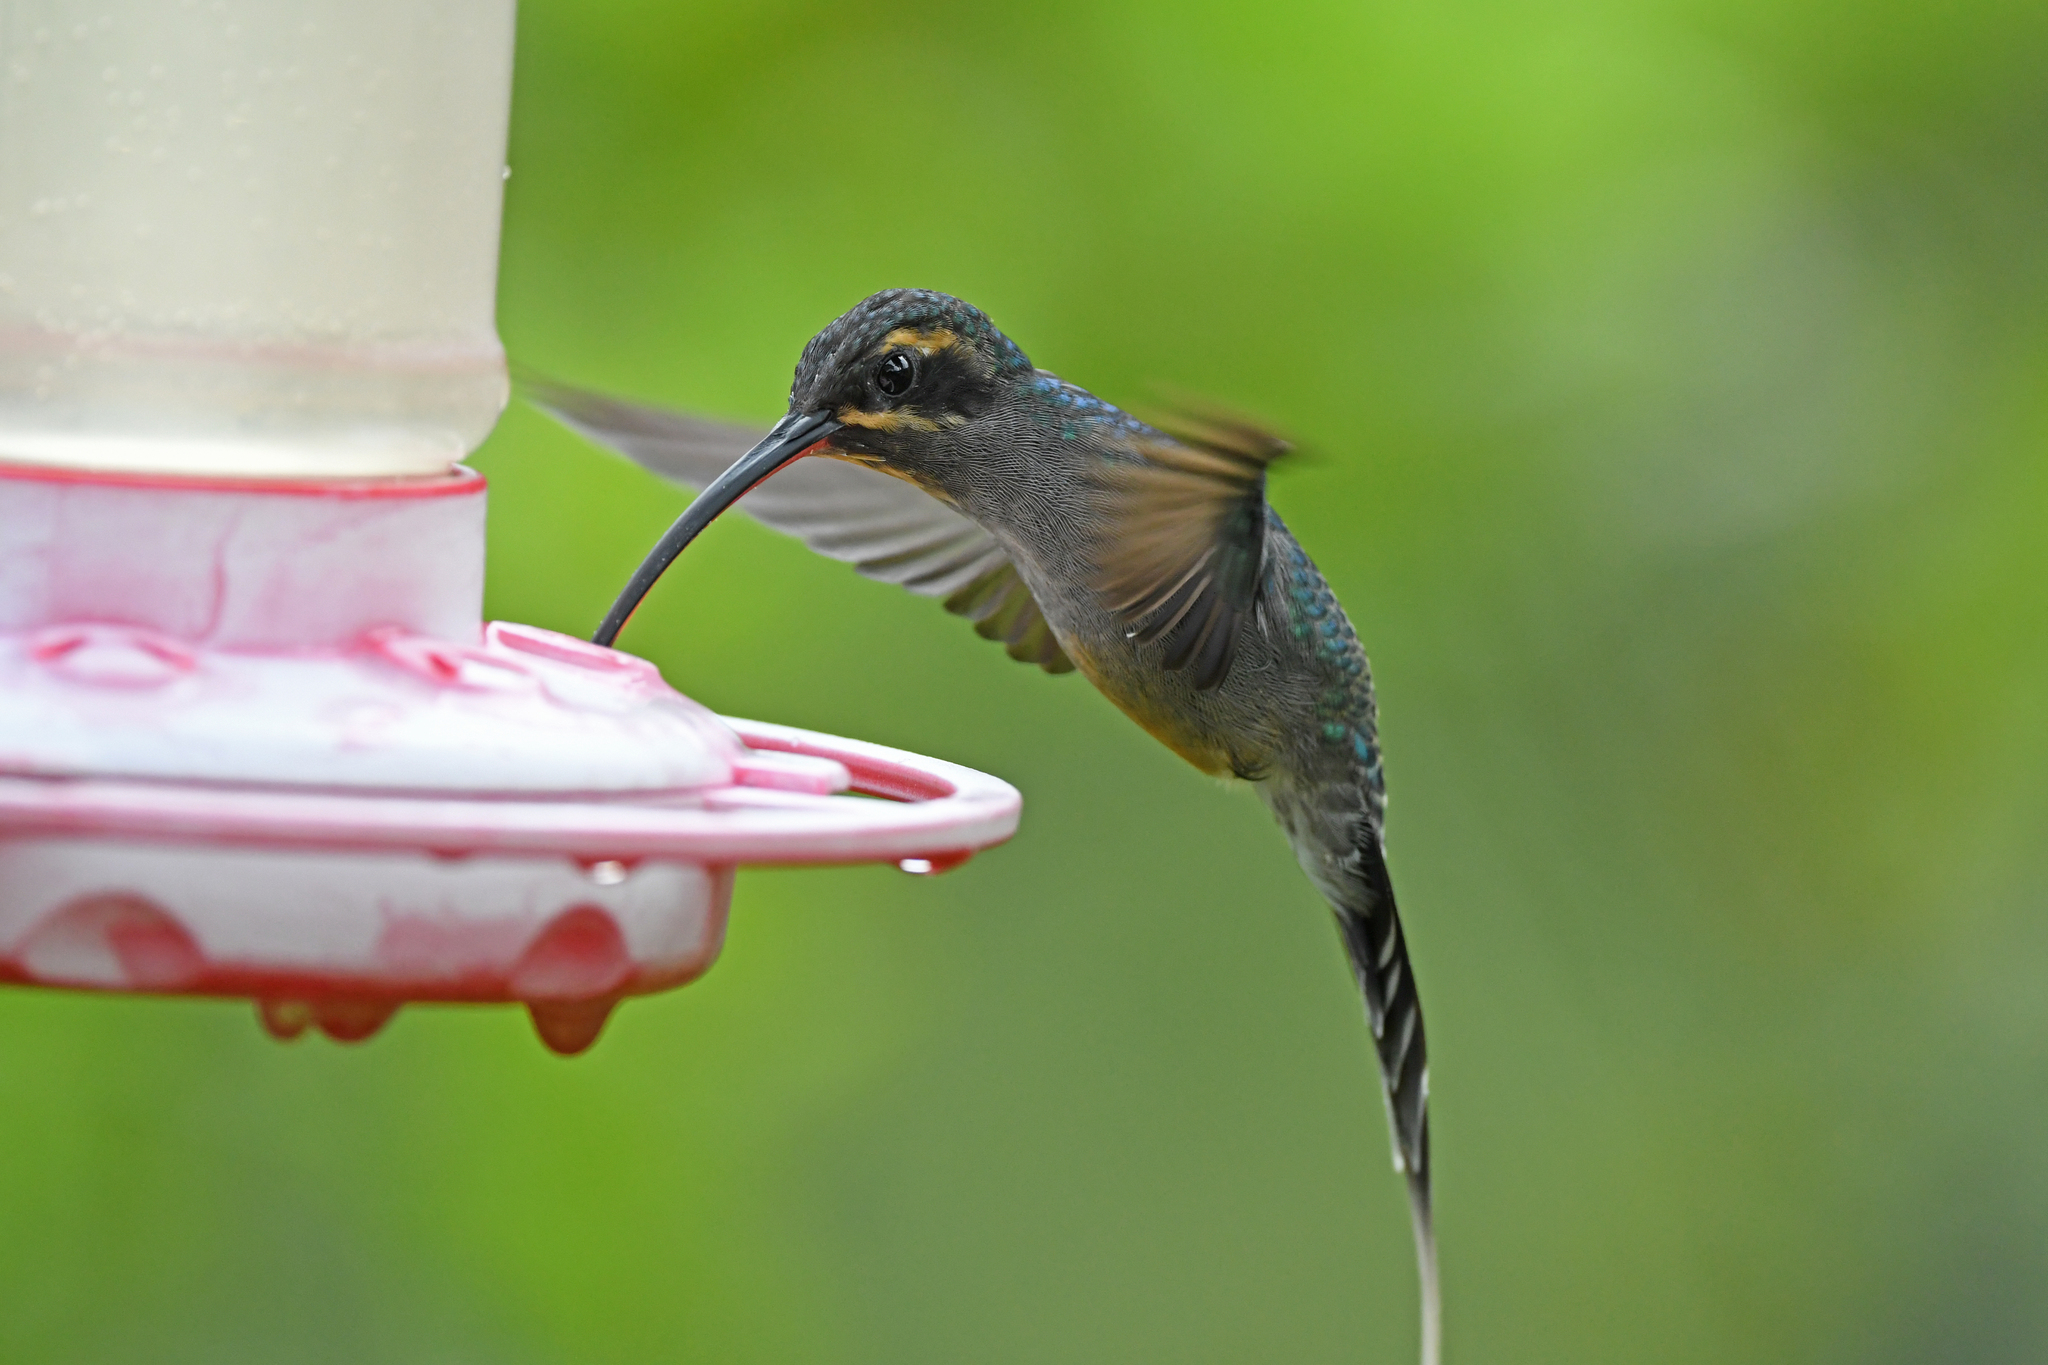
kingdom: Animalia
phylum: Chordata
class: Aves
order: Apodiformes
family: Trochilidae
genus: Phaethornis
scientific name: Phaethornis guy
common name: Green hermit
